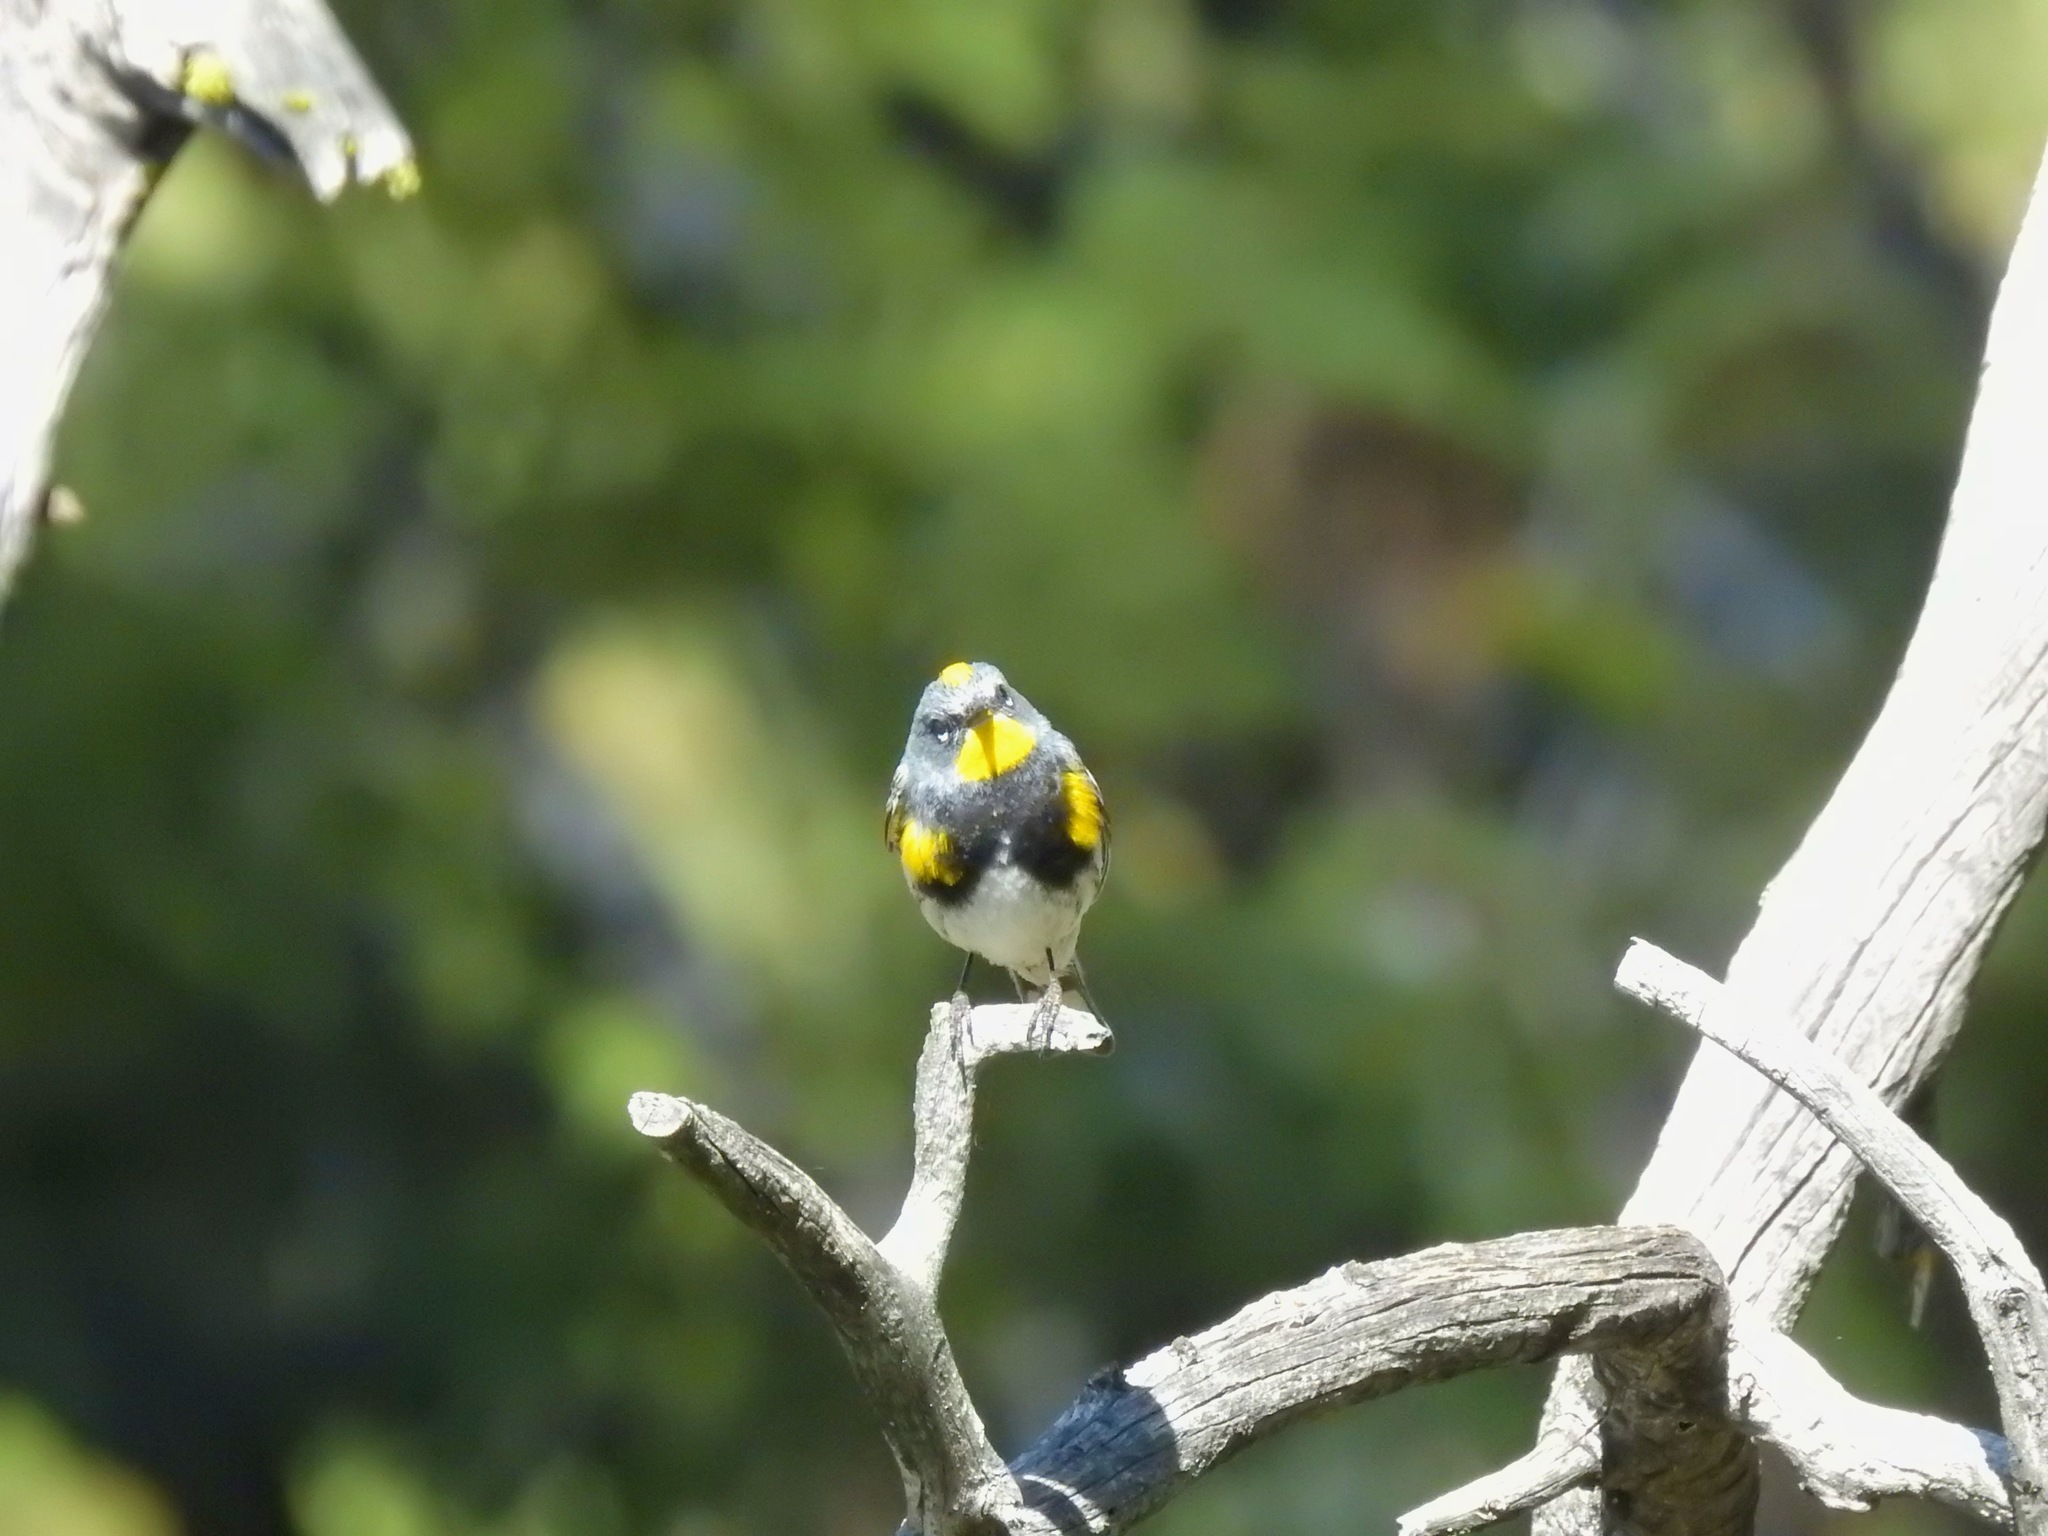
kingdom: Animalia
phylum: Chordata
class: Aves
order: Passeriformes
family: Parulidae
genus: Setophaga
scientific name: Setophaga auduboni
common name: Audubon's warbler
